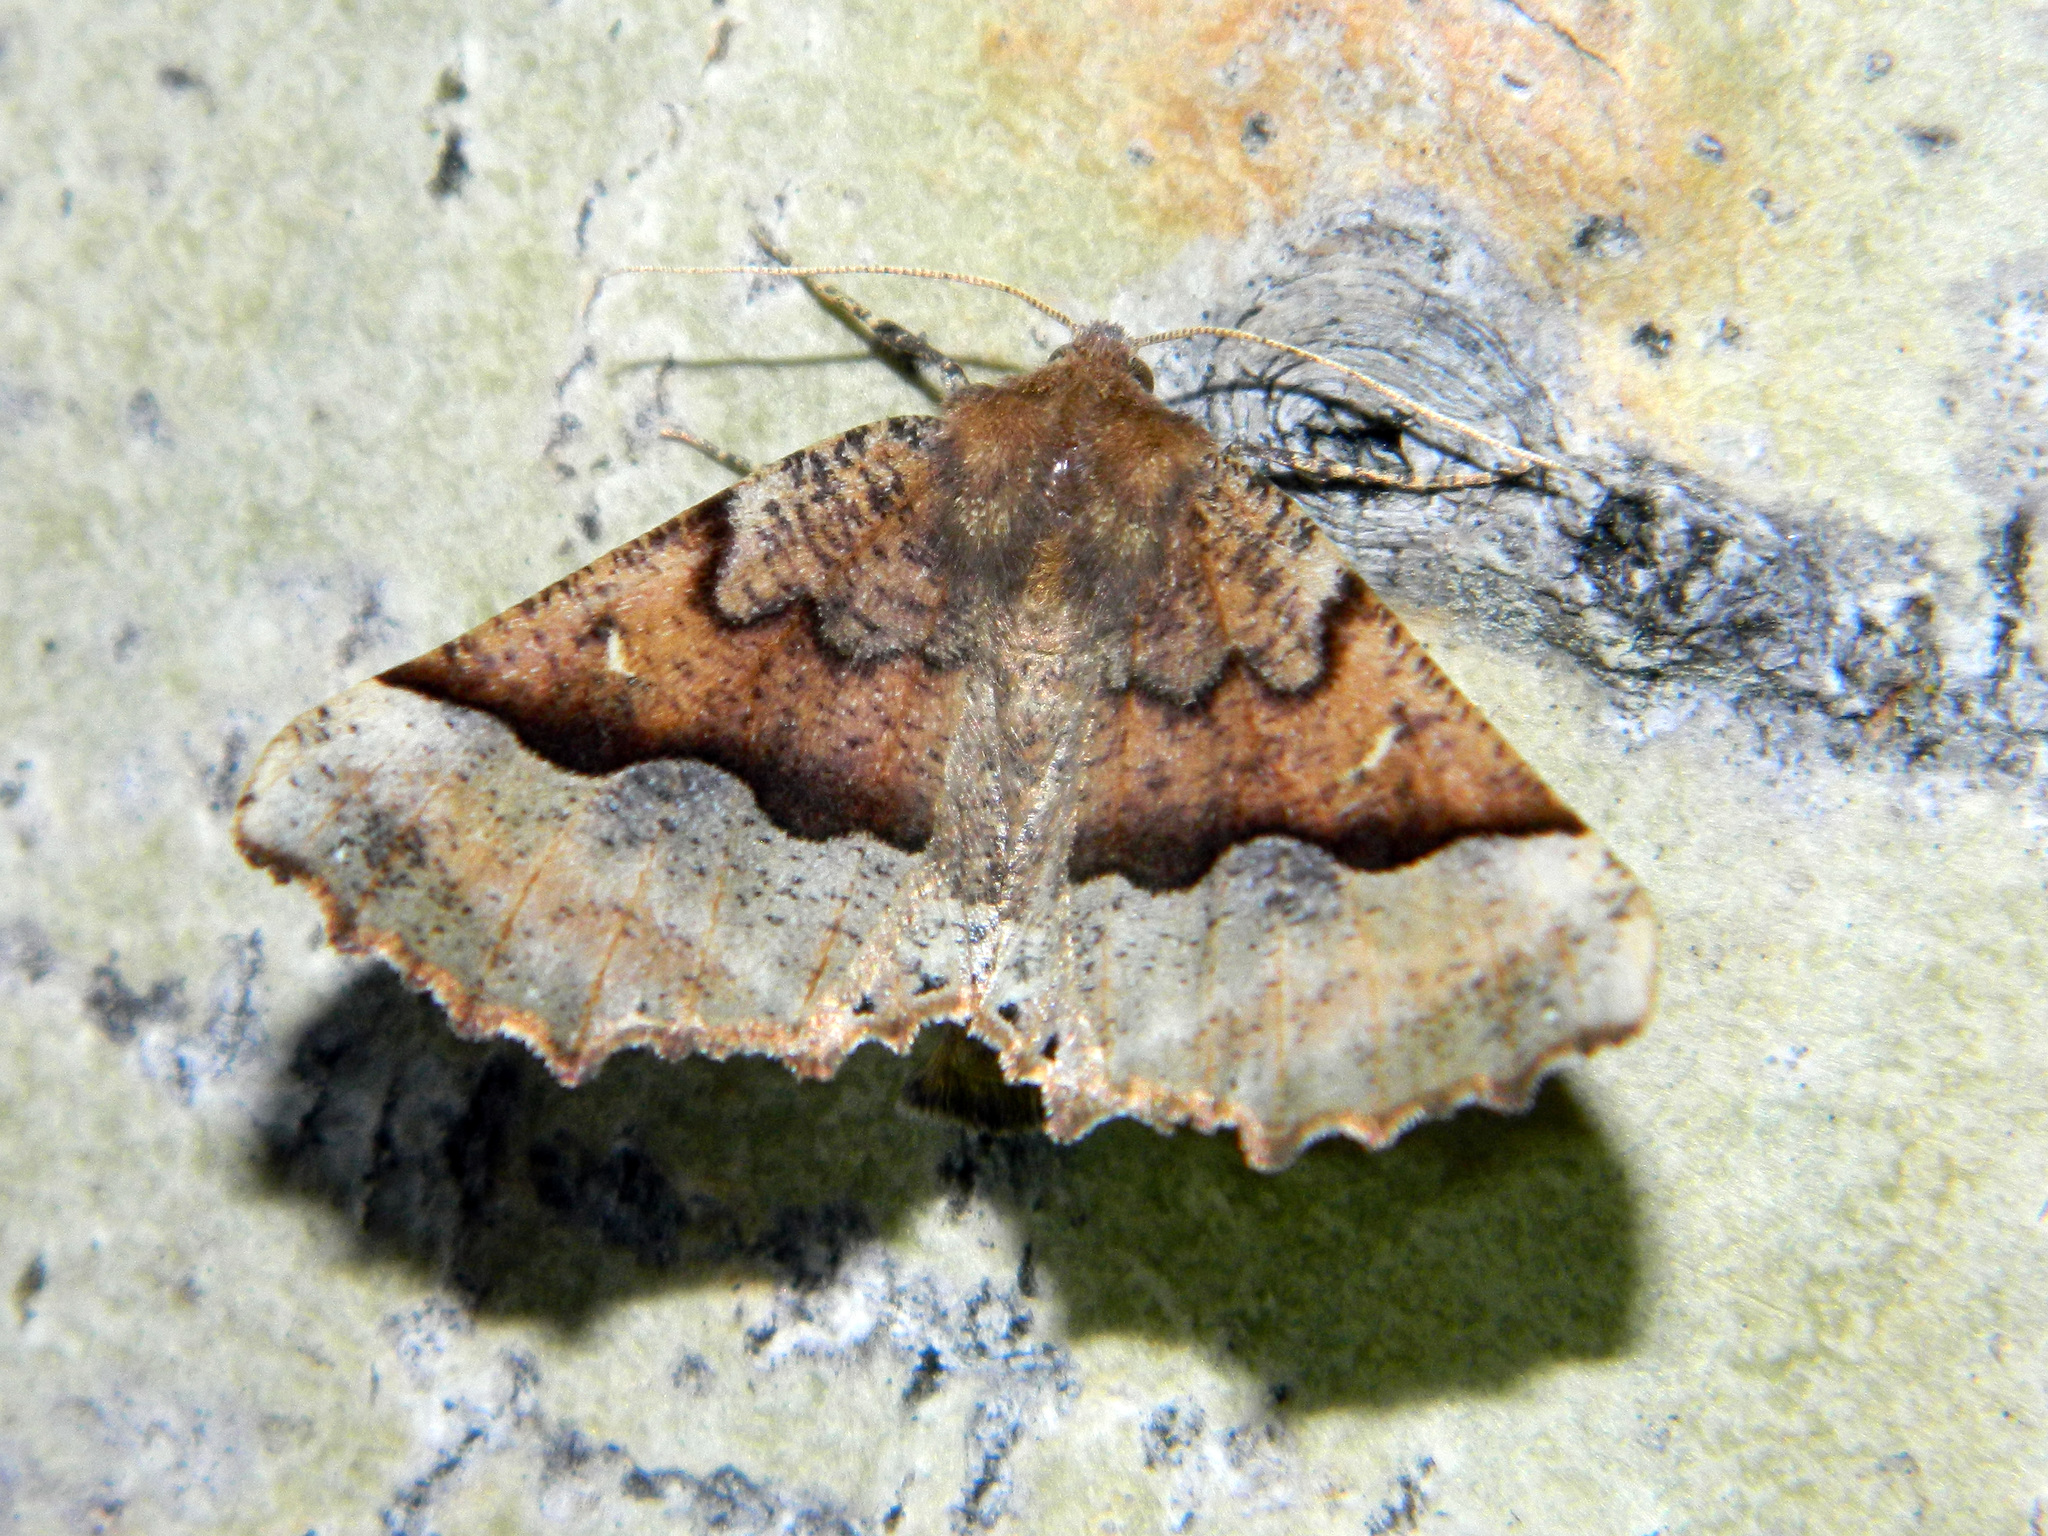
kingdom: Animalia
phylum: Arthropoda
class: Insecta
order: Lepidoptera
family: Geometridae
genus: Pero
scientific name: Pero morrisonaria
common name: Morrison's pero
